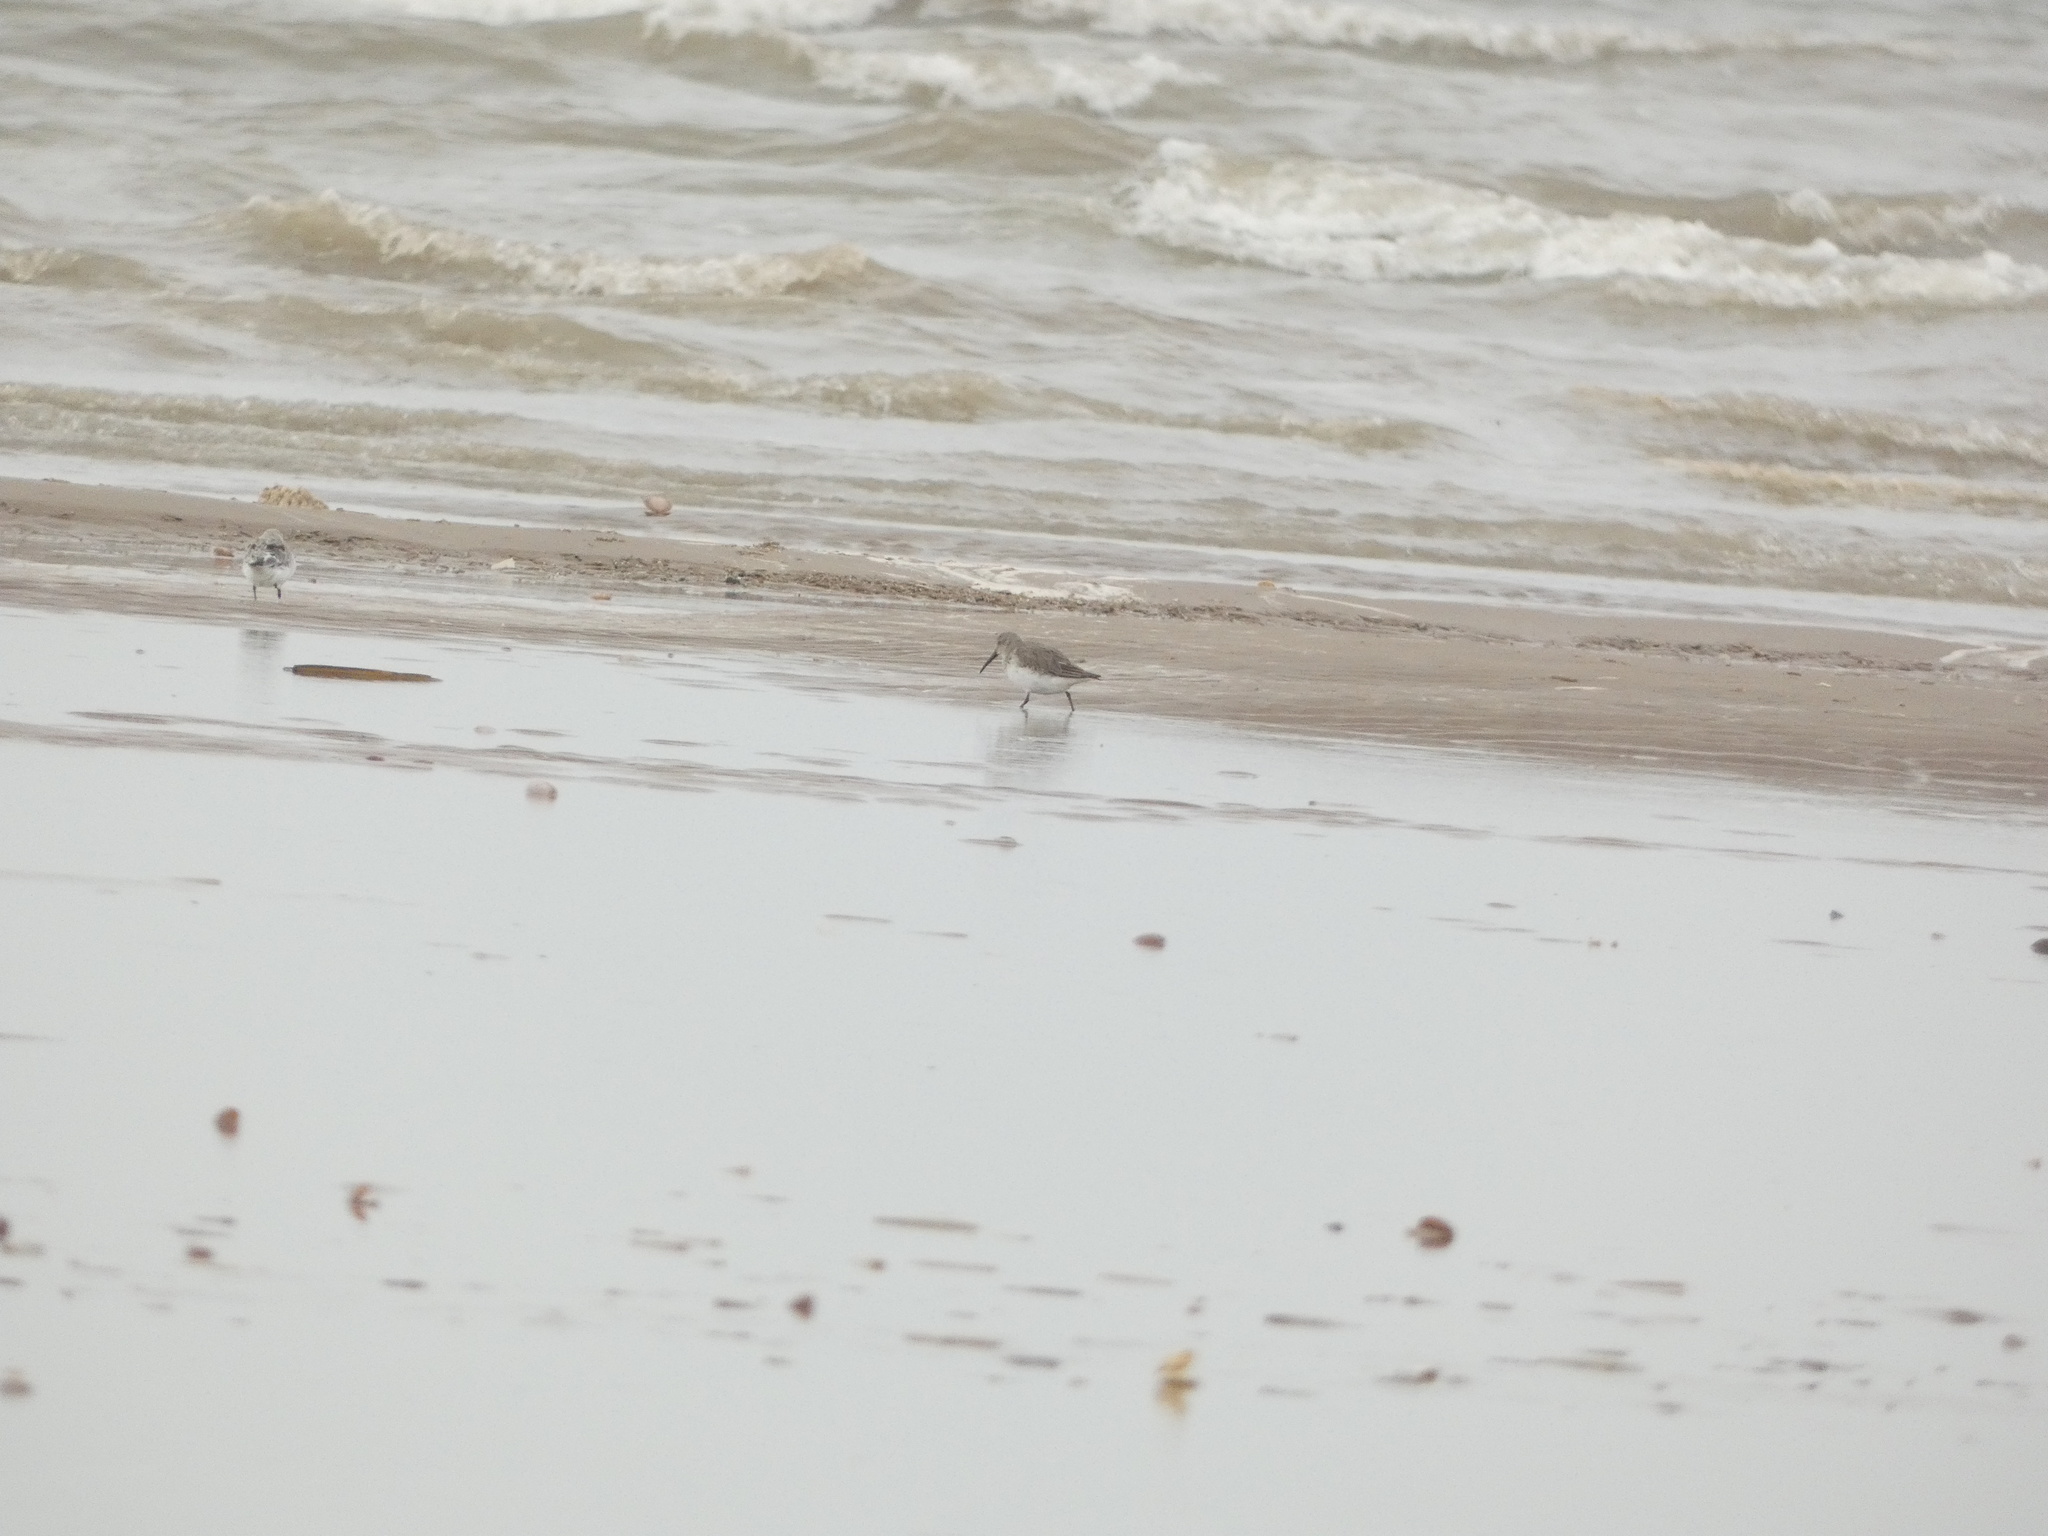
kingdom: Animalia
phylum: Chordata
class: Aves
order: Charadriiformes
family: Scolopacidae
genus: Calidris
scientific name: Calidris alpina
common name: Dunlin
